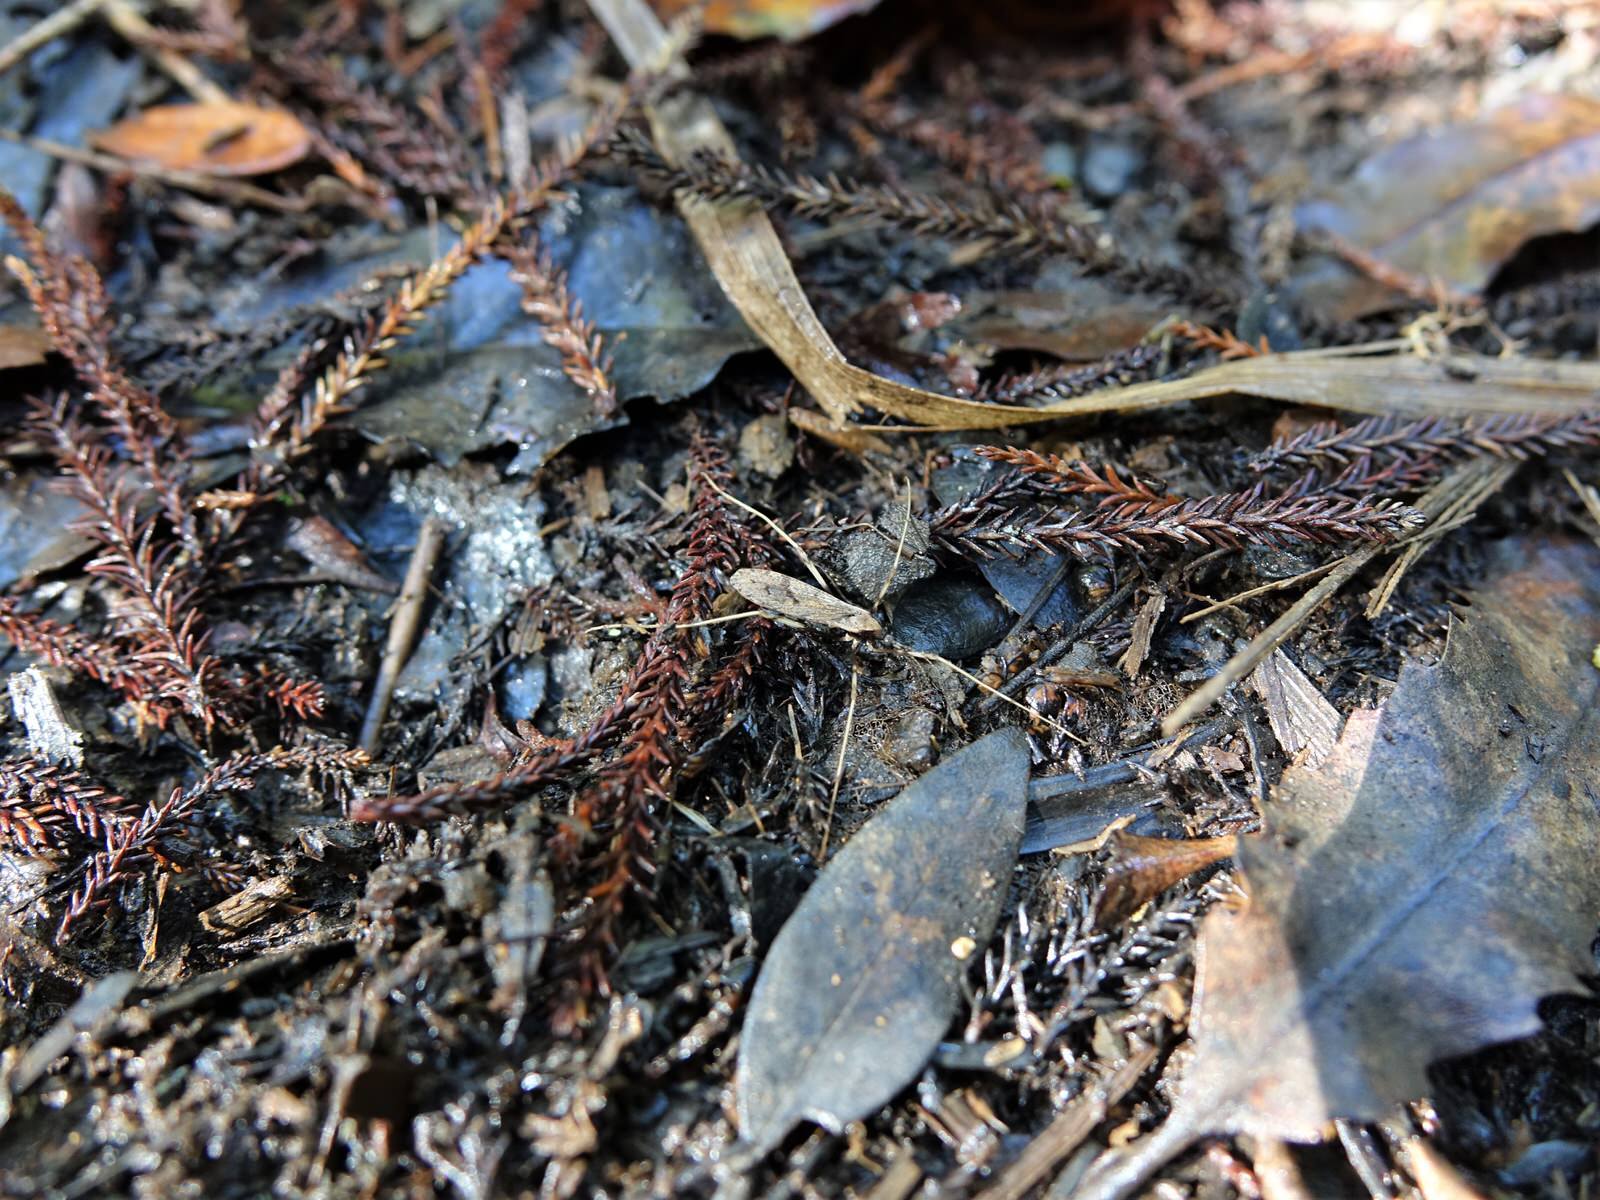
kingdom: Animalia
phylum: Arthropoda
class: Insecta
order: Diptera
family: Limoniidae
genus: Rhamphophila
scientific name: Rhamphophila sinistra
